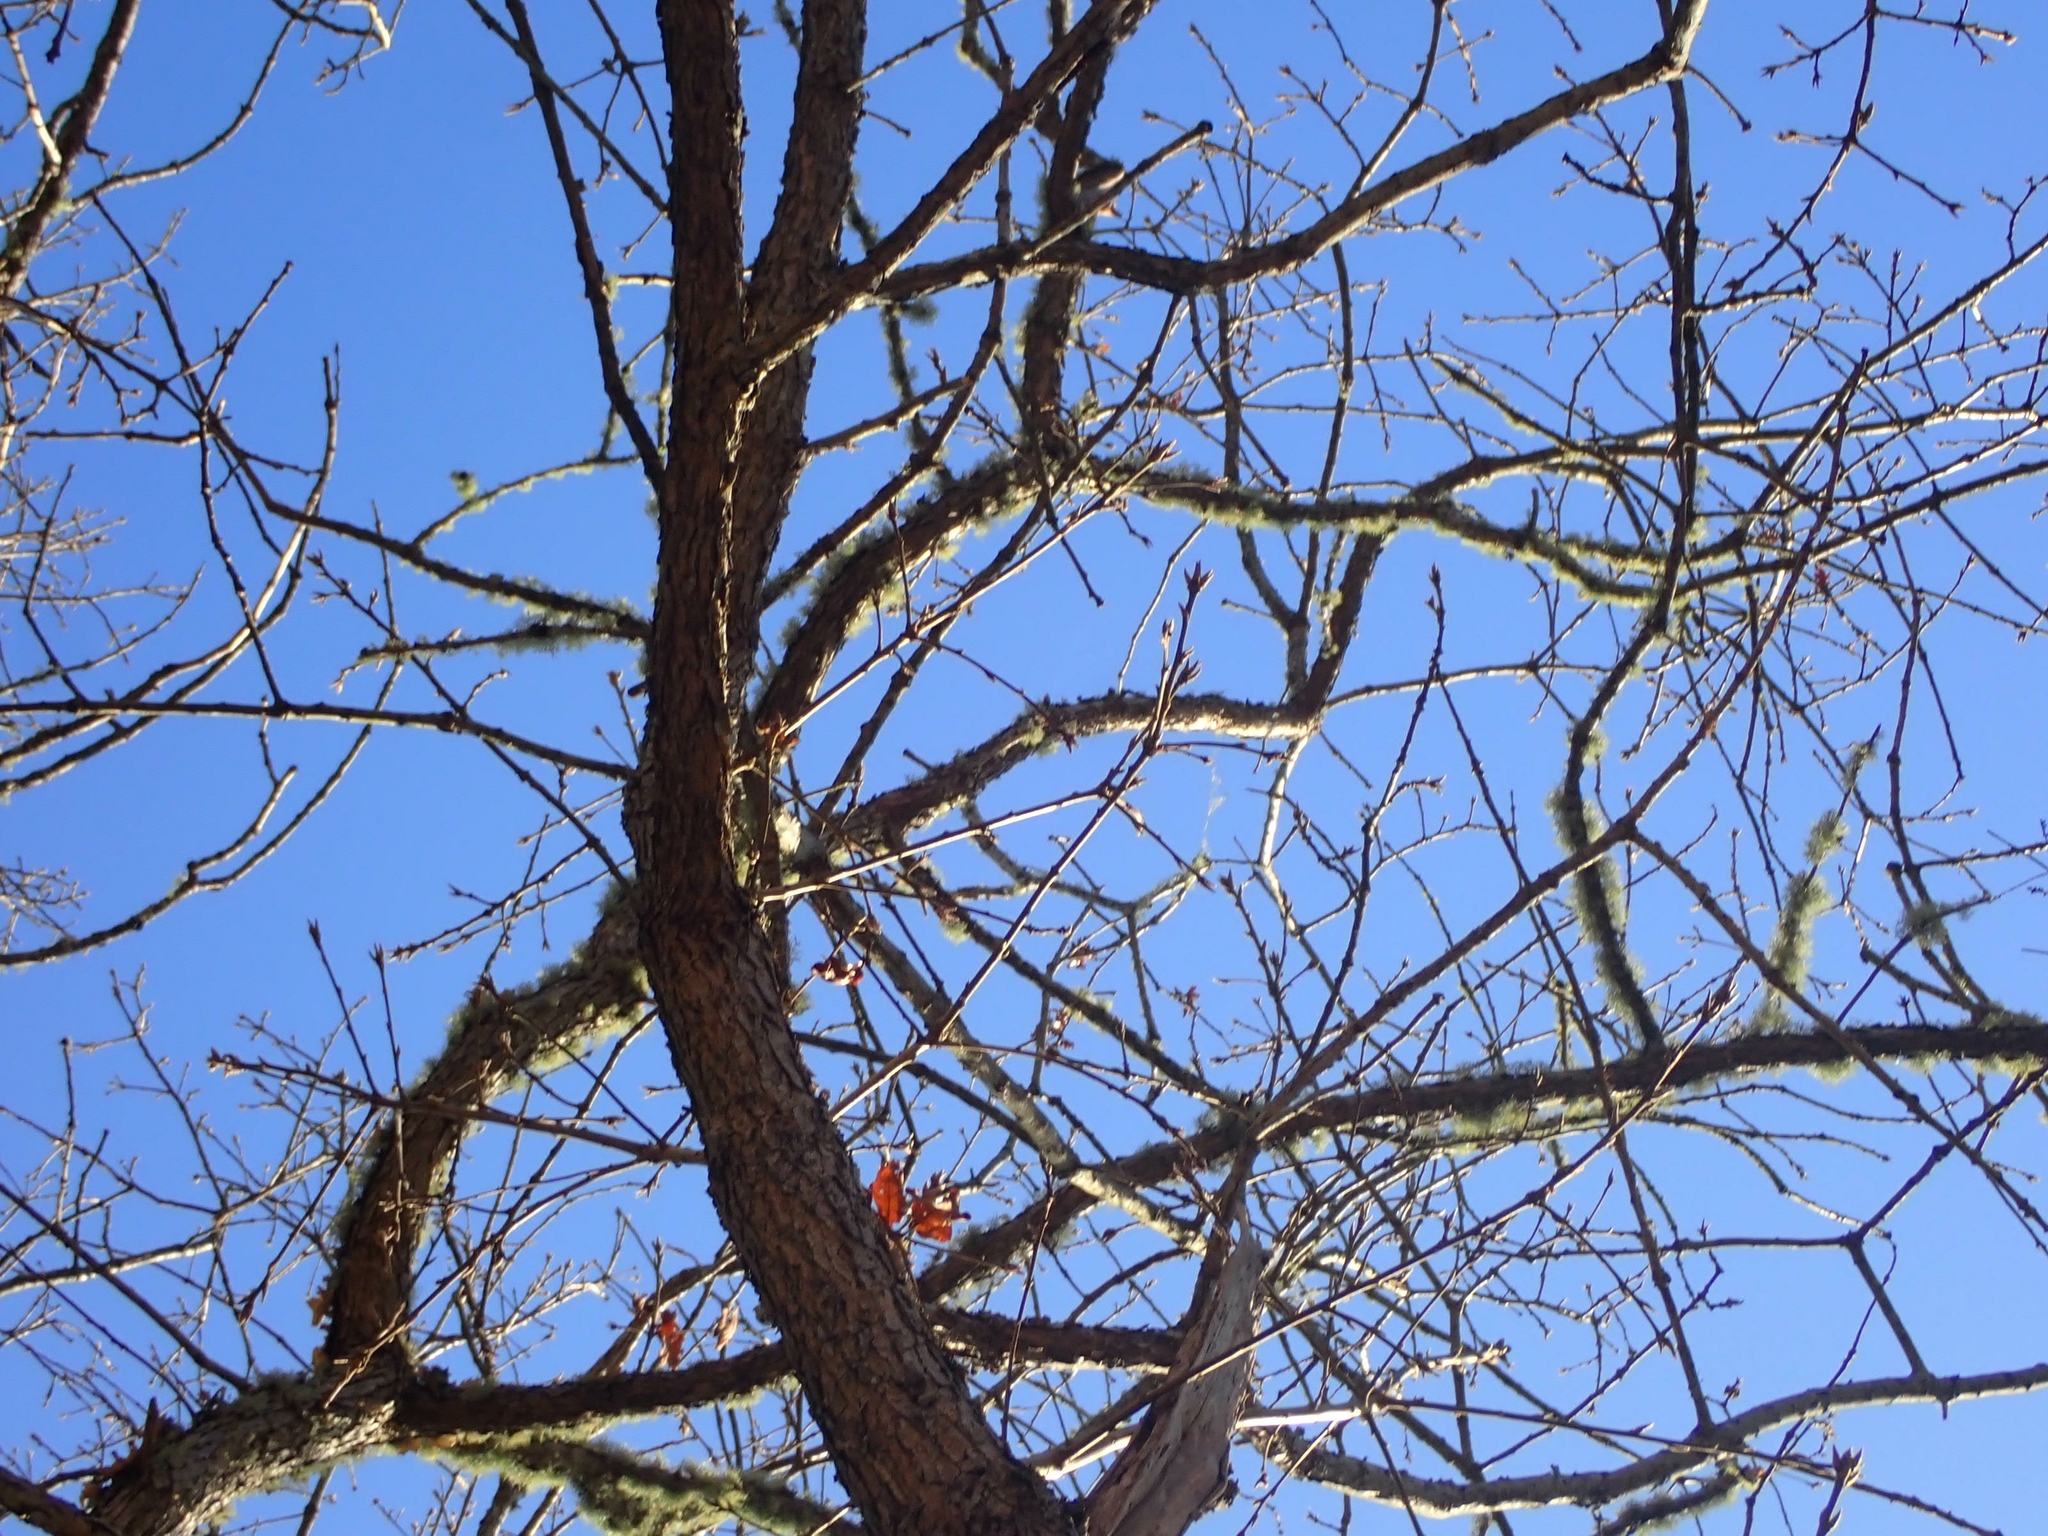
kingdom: Plantae
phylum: Tracheophyta
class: Magnoliopsida
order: Fagales
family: Fagaceae
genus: Quercus
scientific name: Quercus garryana
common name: Garry oak
